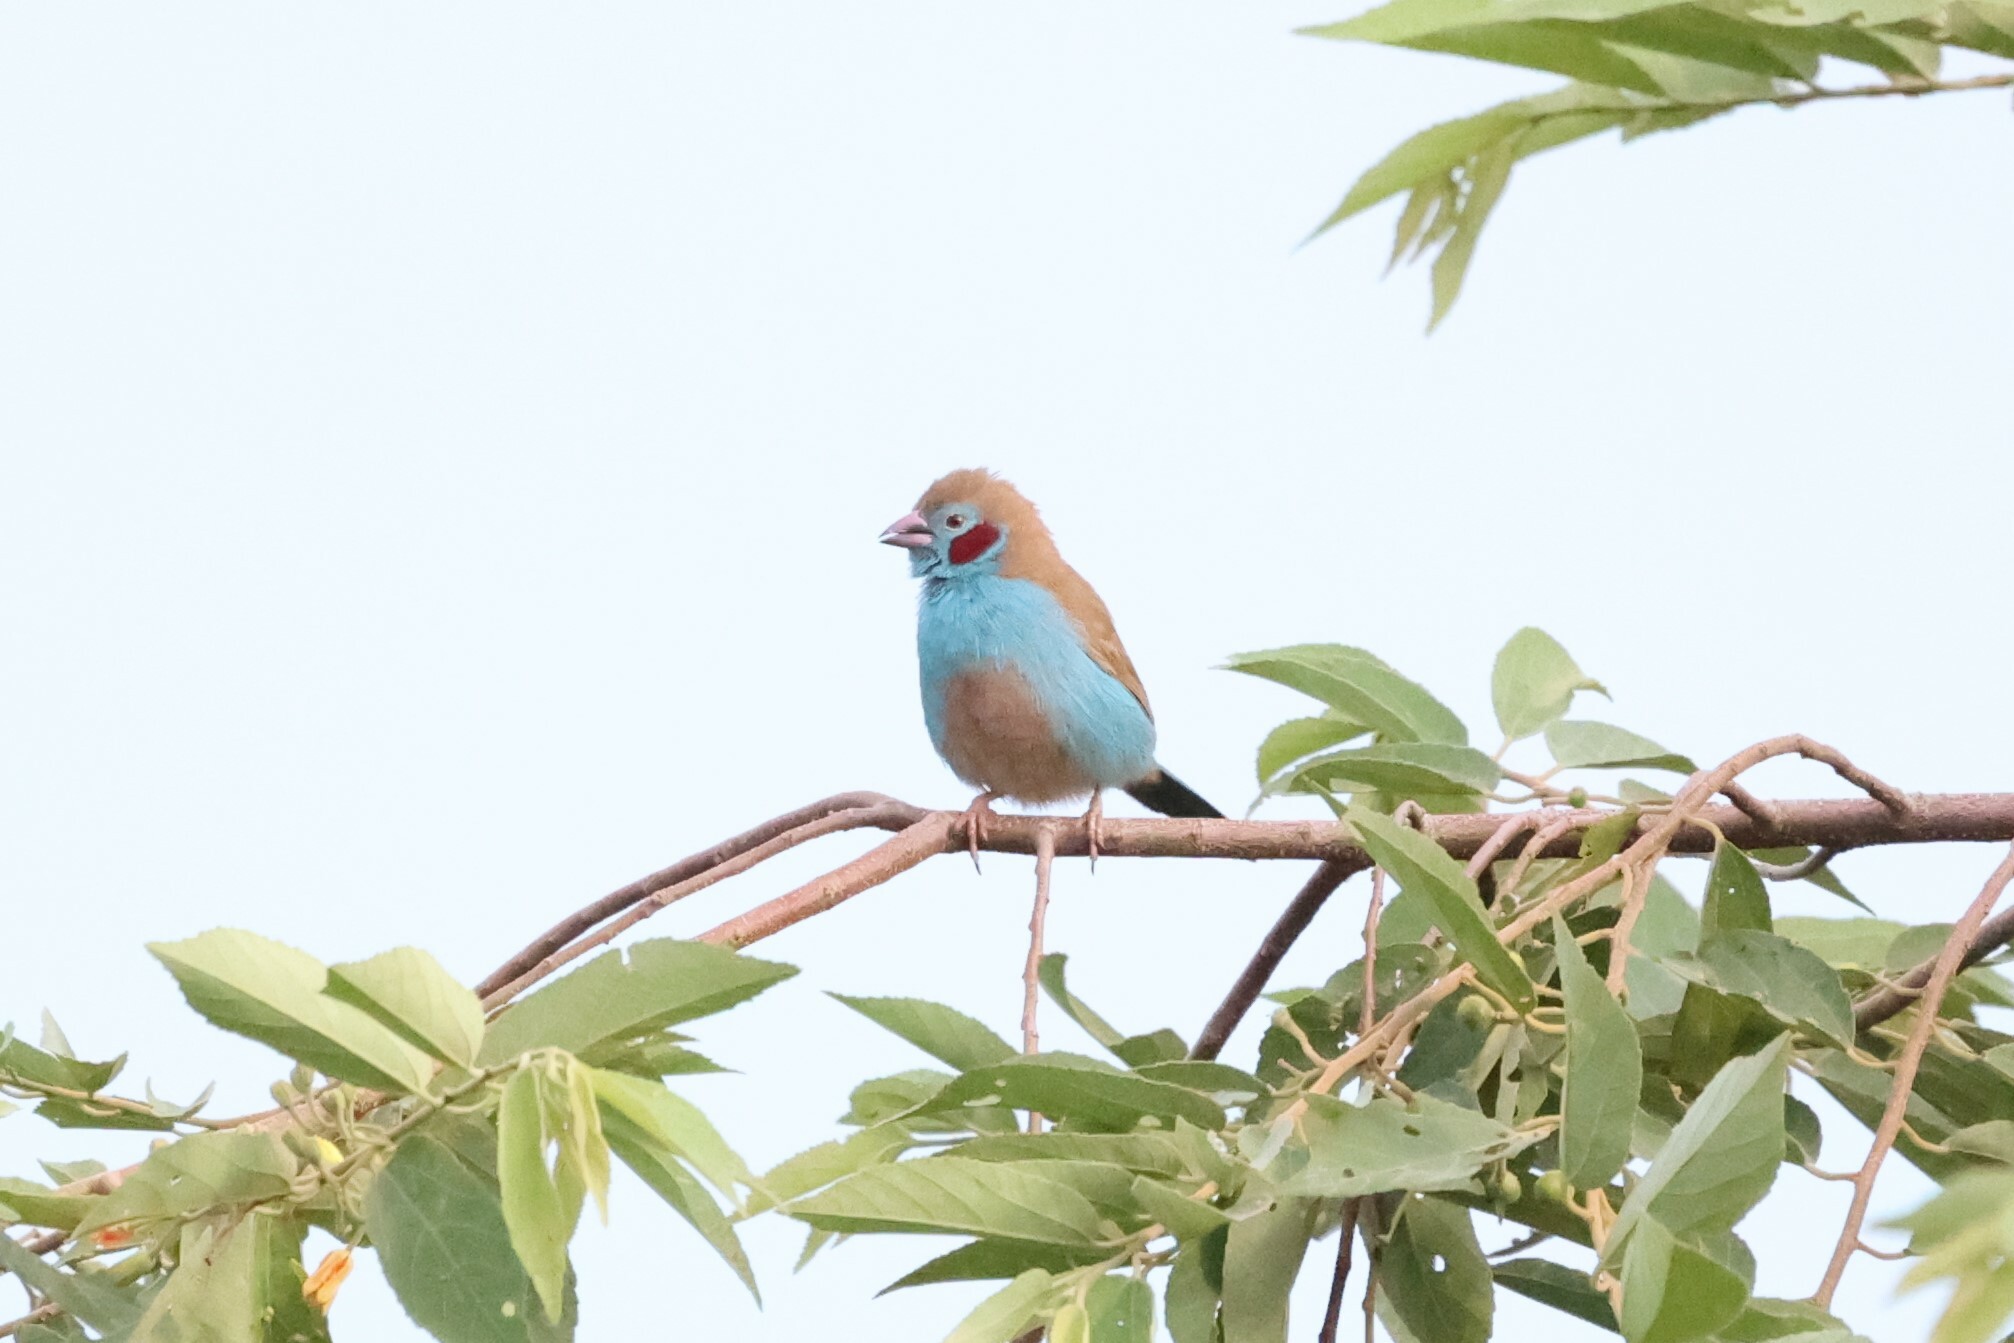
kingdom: Animalia
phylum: Chordata
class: Aves
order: Passeriformes
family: Estrildidae
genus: Uraeginthus
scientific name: Uraeginthus bengalus
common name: Red-cheeked cordon-bleu
